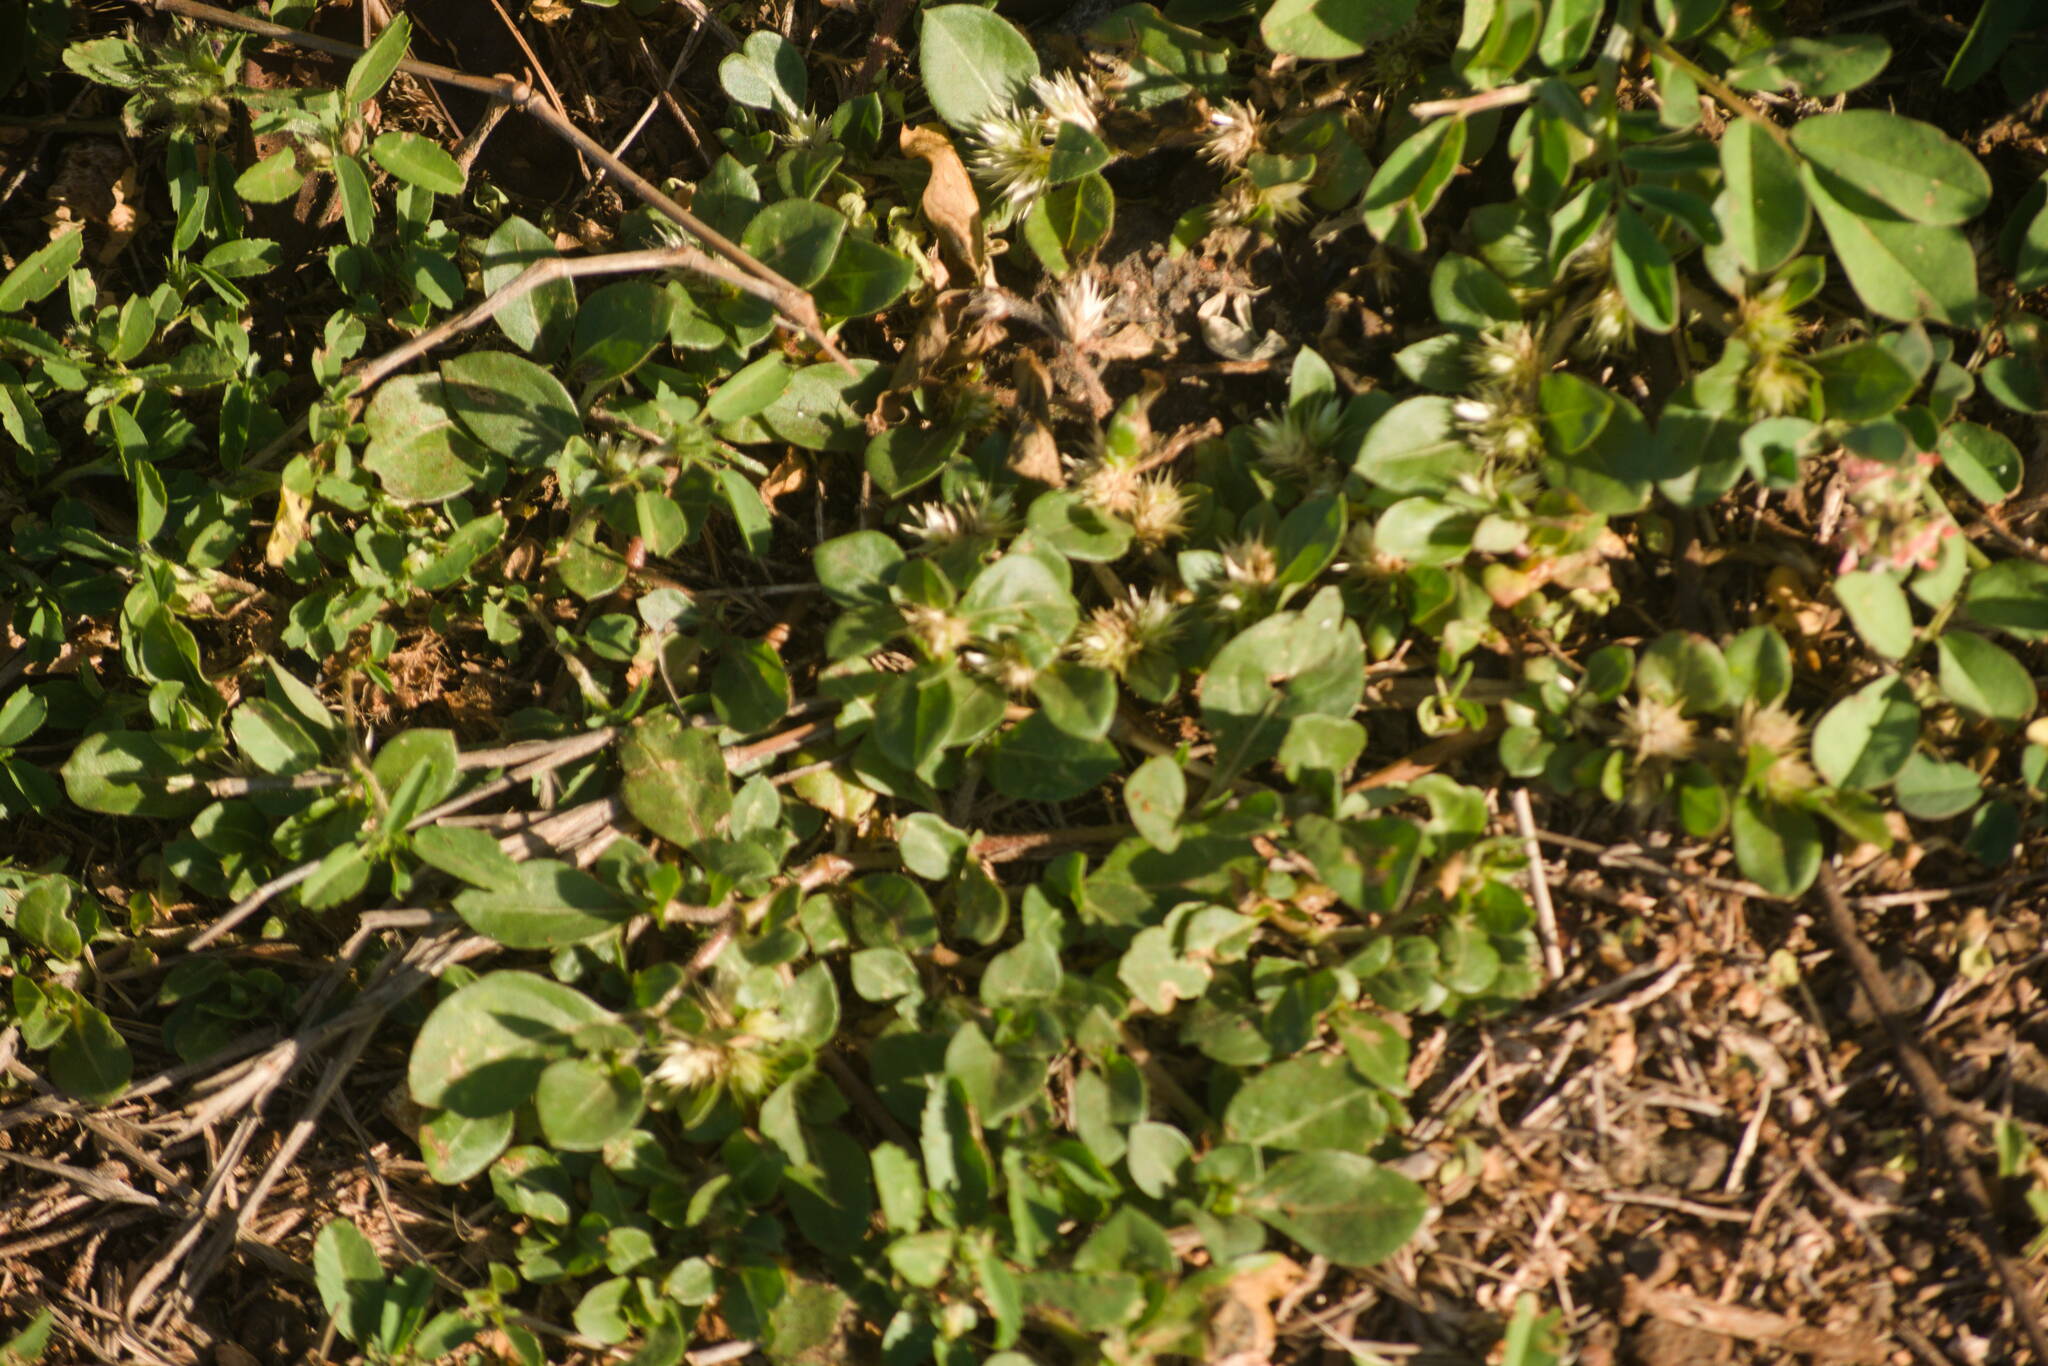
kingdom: Plantae
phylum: Tracheophyta
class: Magnoliopsida
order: Caryophyllales
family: Amaranthaceae
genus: Alternanthera
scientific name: Alternanthera pungens
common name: Khakiweed
